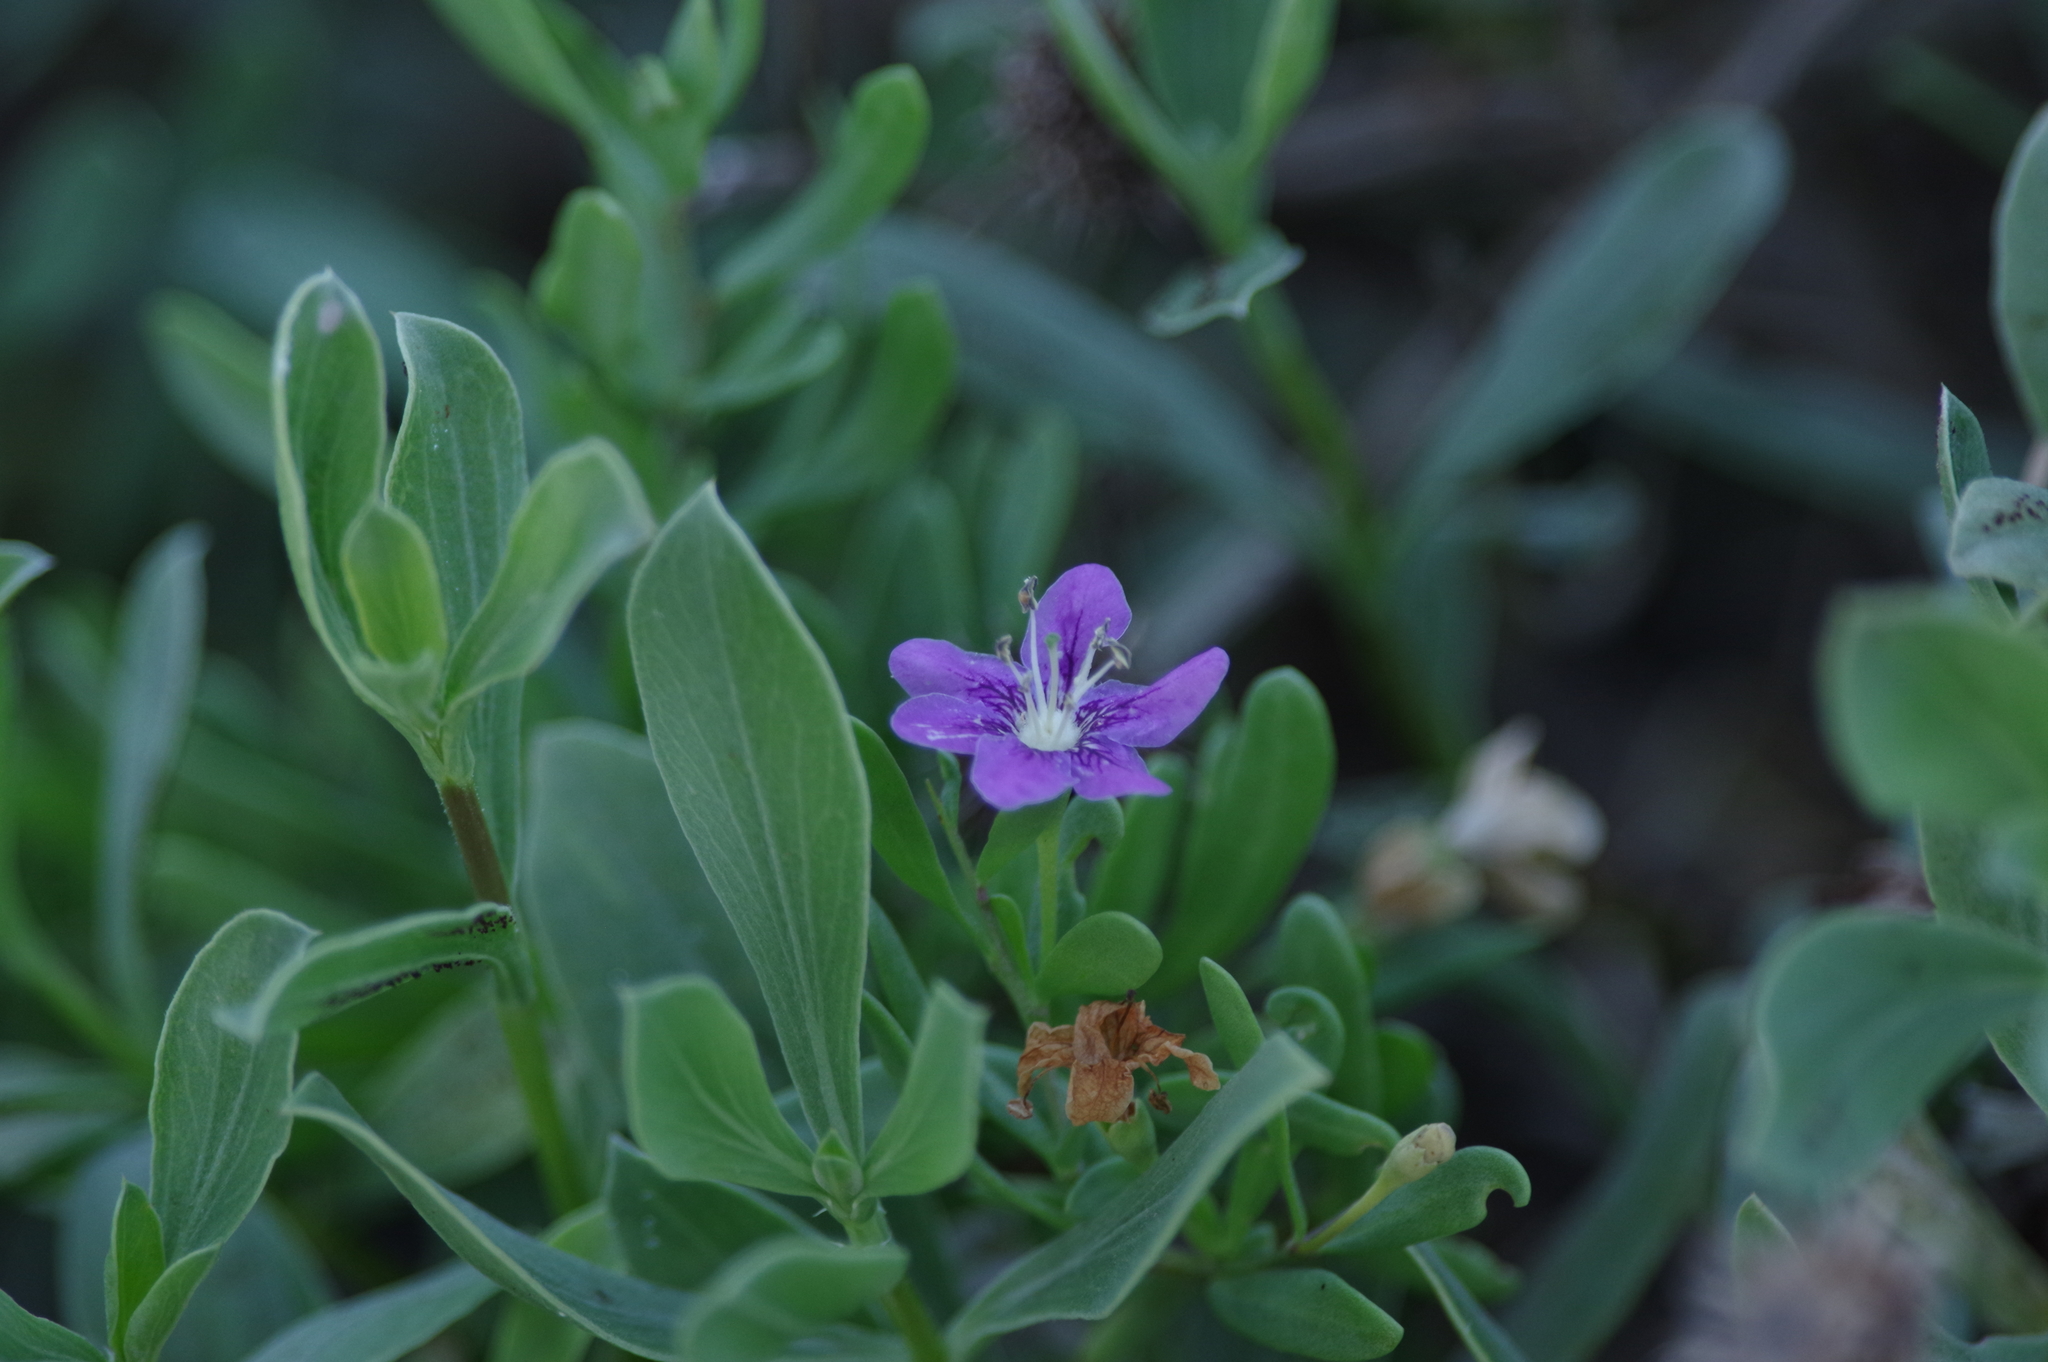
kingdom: Plantae
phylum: Tracheophyta
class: Magnoliopsida
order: Solanales
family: Solanaceae
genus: Lycium
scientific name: Lycium carolinianum
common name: Christmasberry
